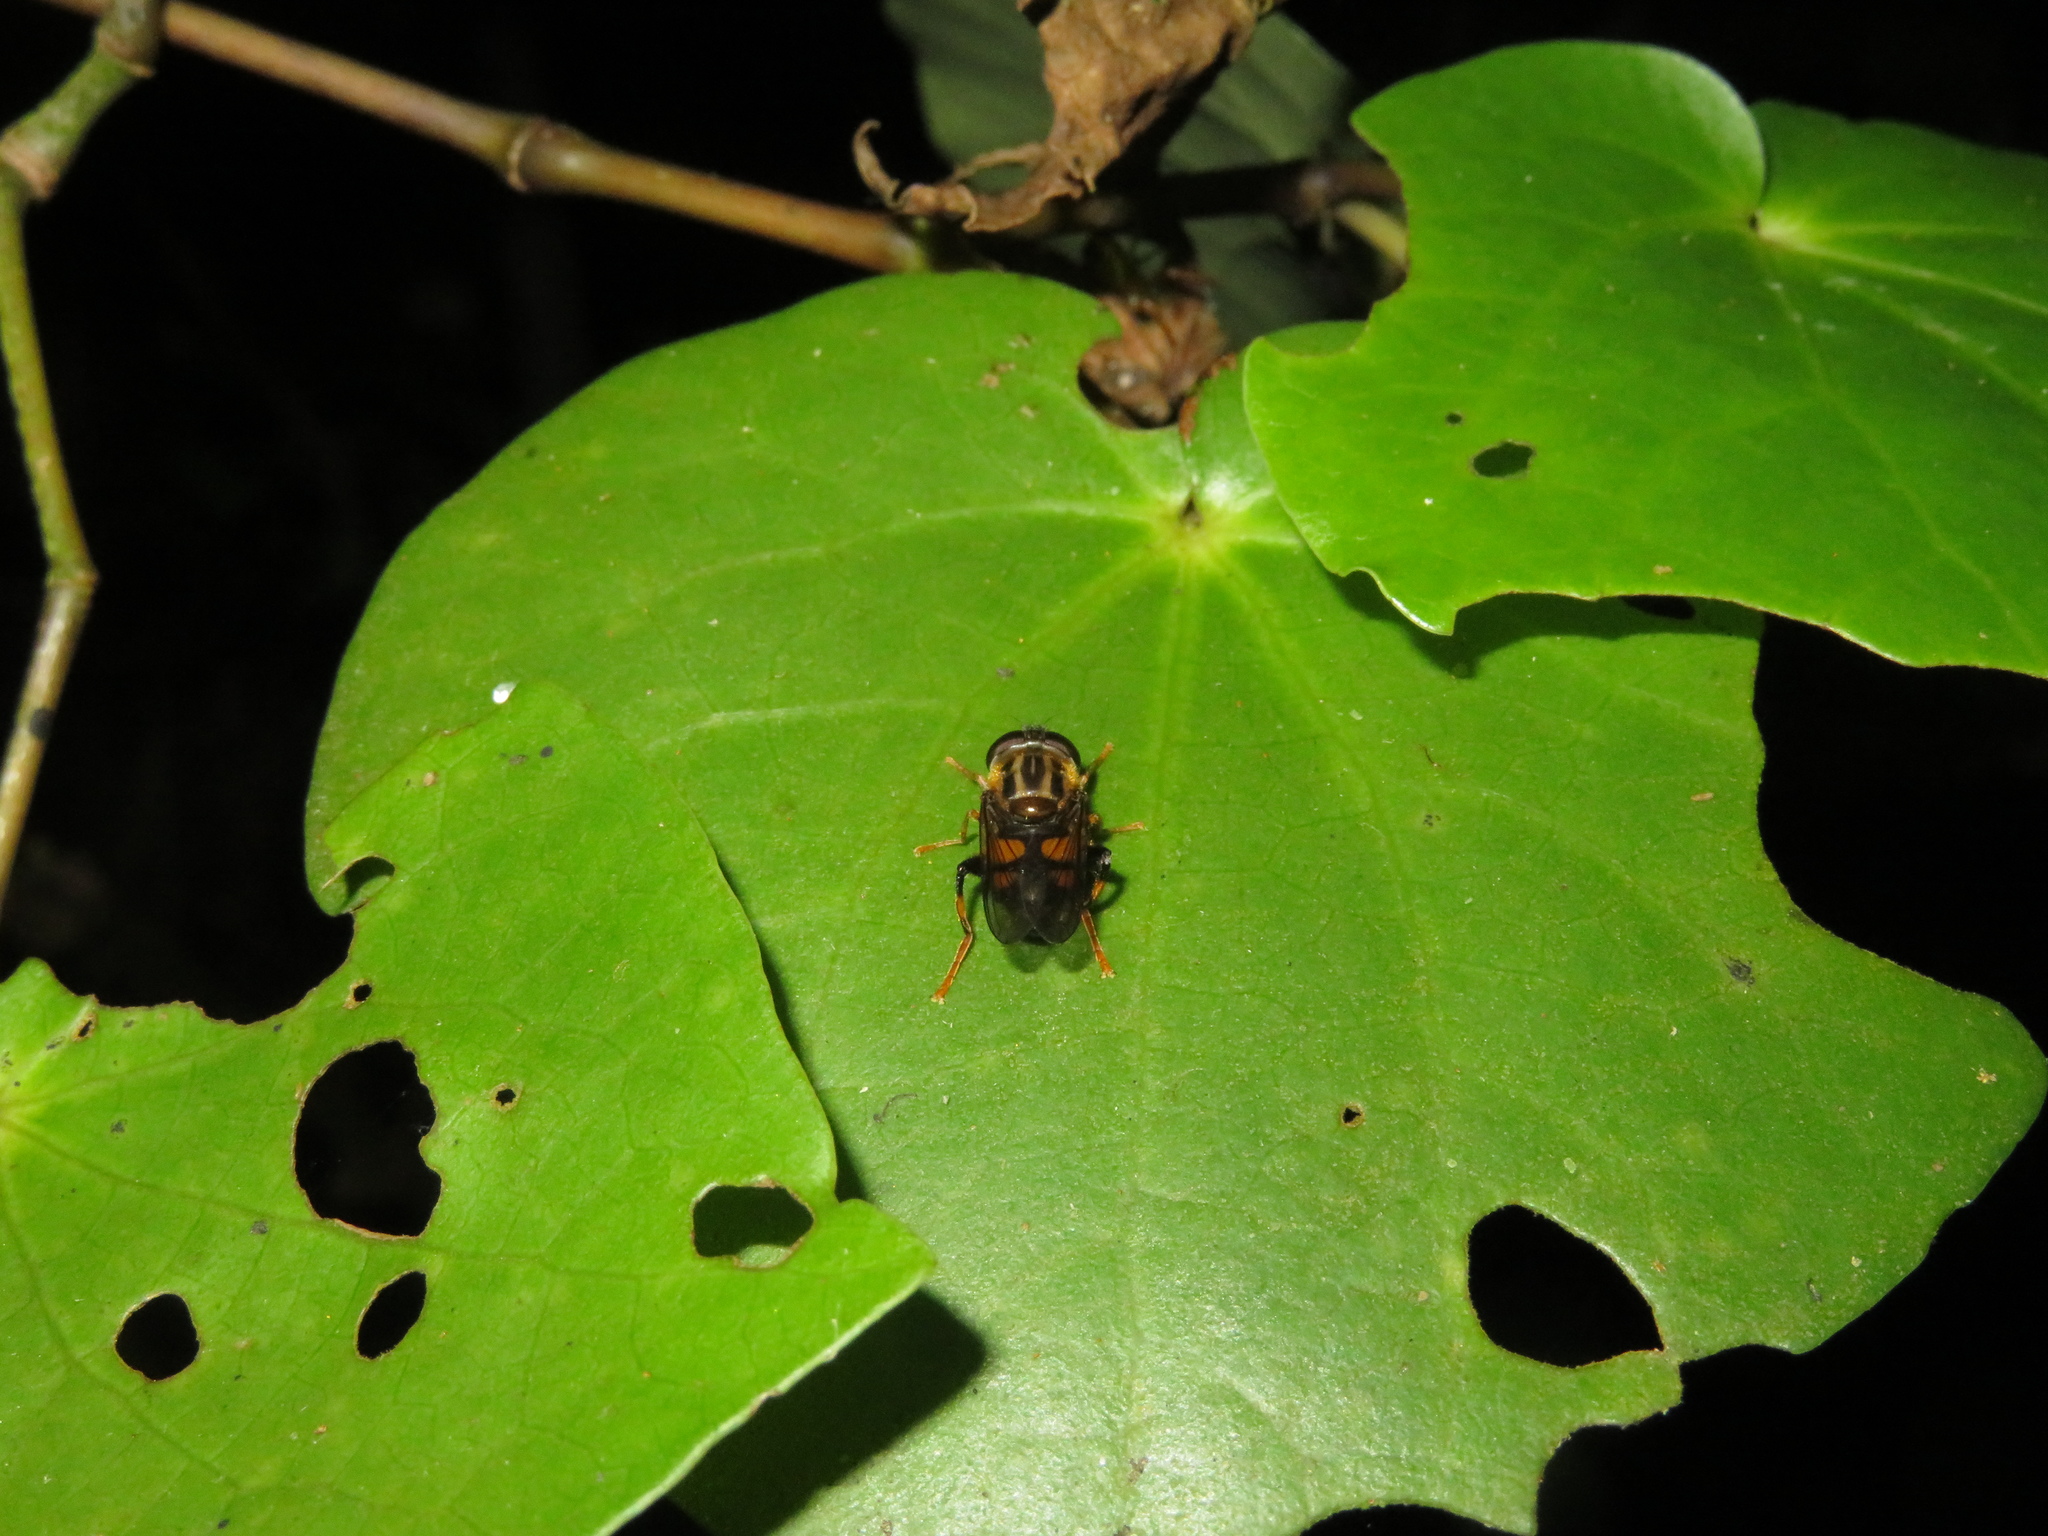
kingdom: Animalia
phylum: Arthropoda
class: Insecta
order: Diptera
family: Syrphidae
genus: Helophilus
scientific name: Helophilus antipodus
